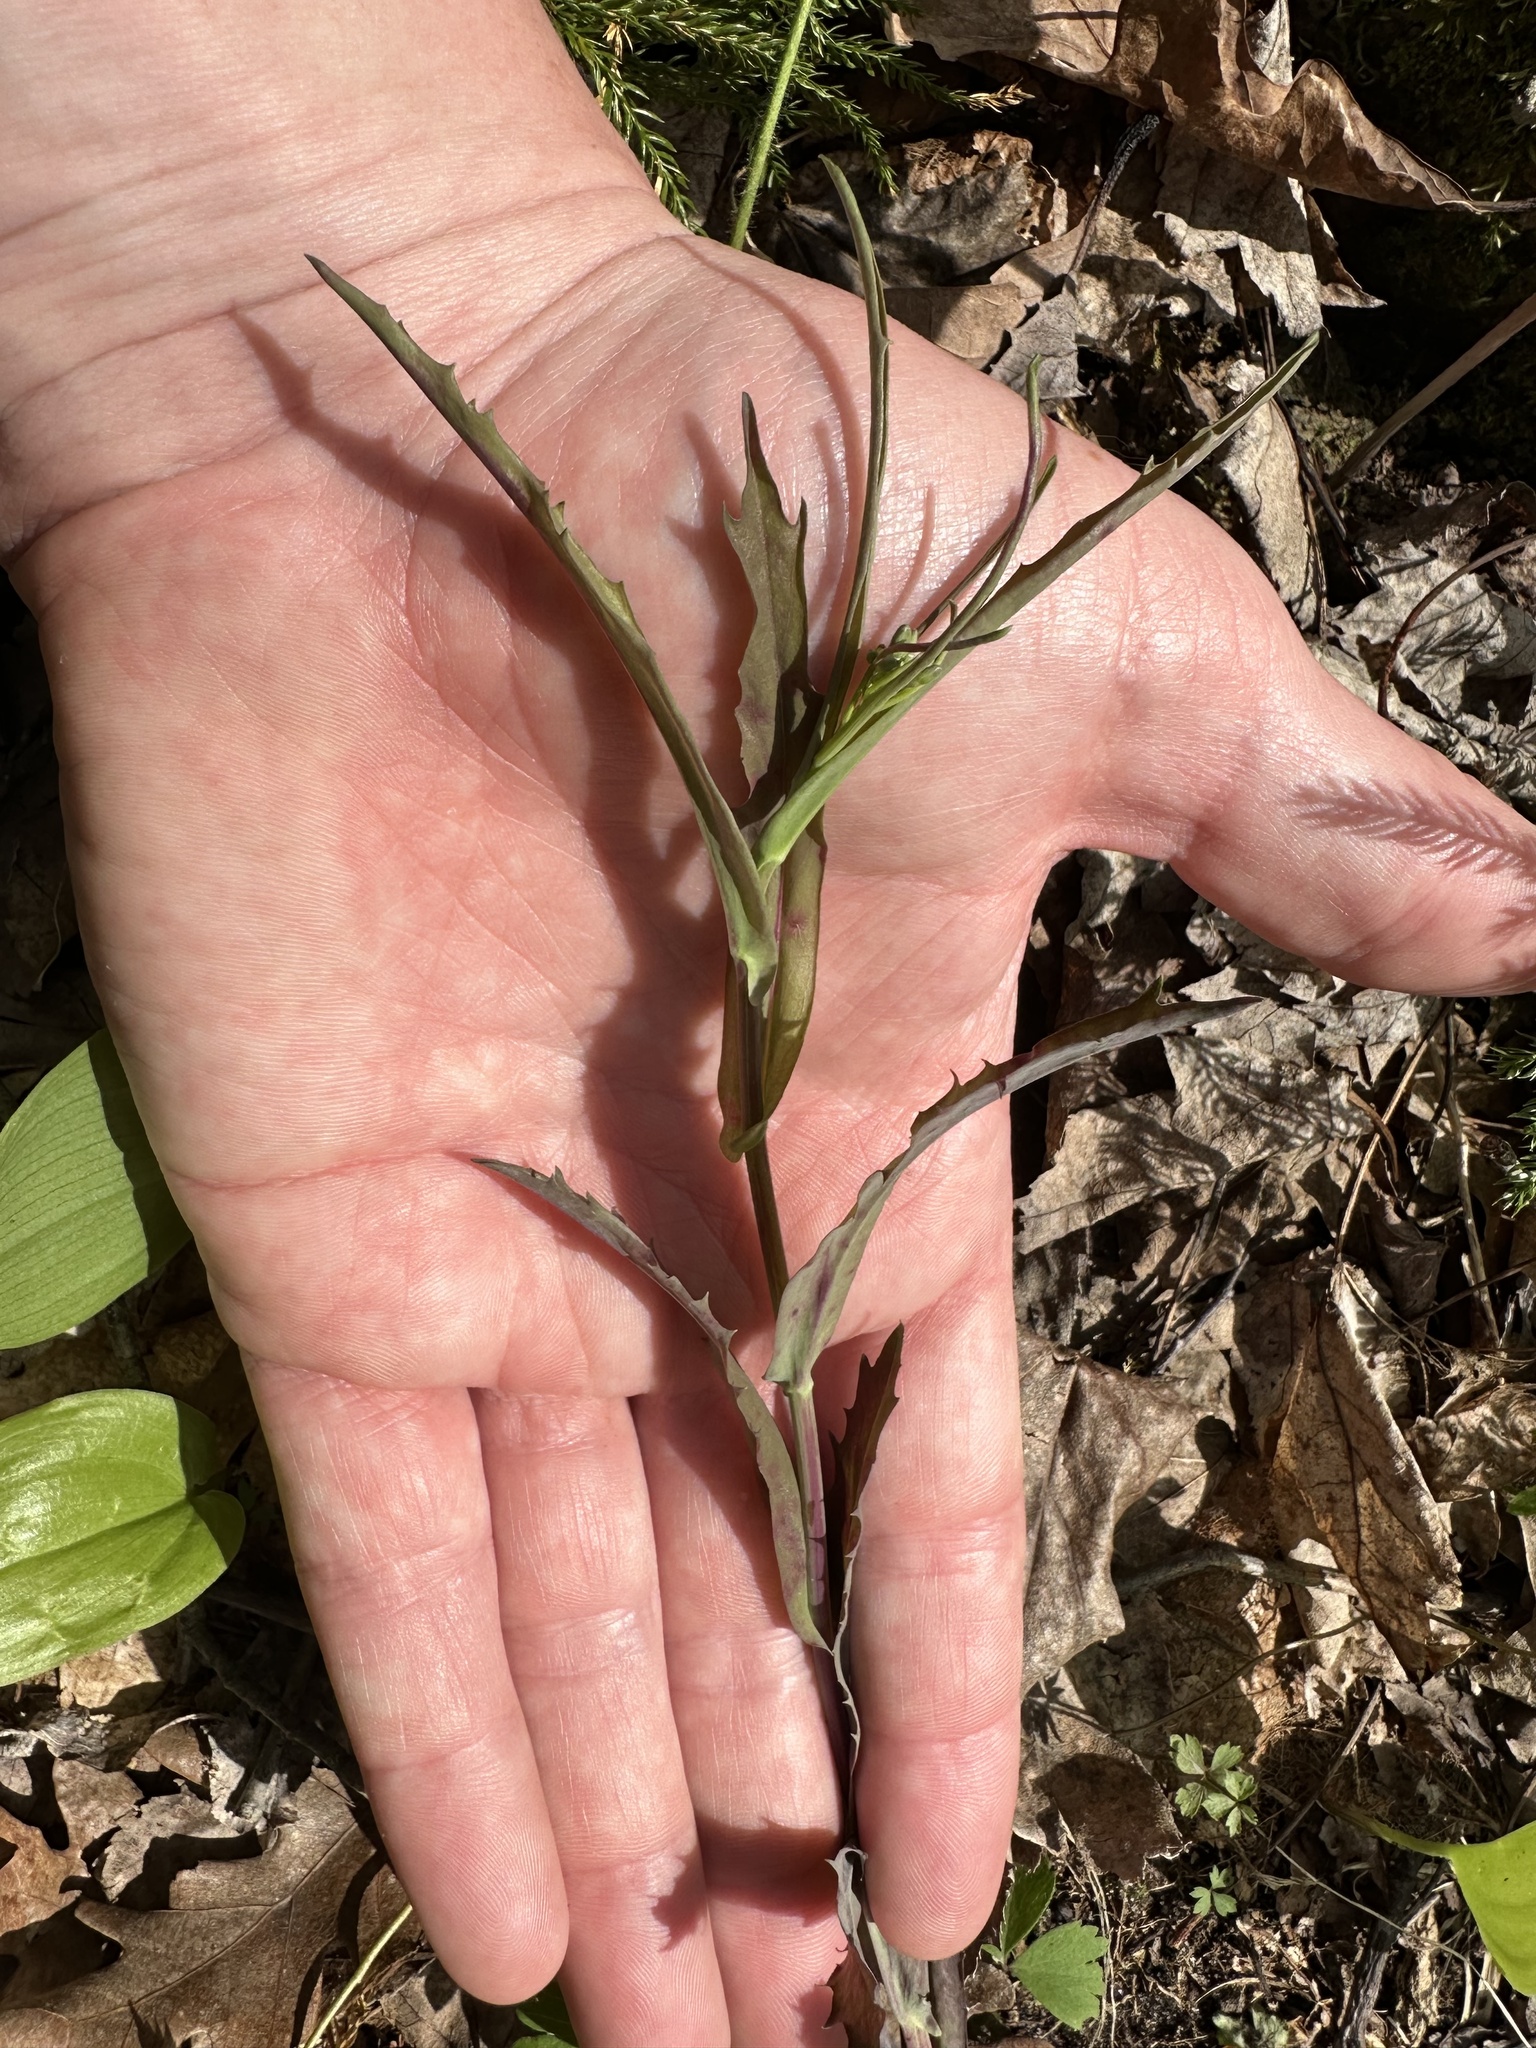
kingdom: Plantae
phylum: Tracheophyta
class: Magnoliopsida
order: Brassicales
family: Brassicaceae
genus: Borodinia
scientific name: Borodinia laevigata
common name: Smooth rockcress
